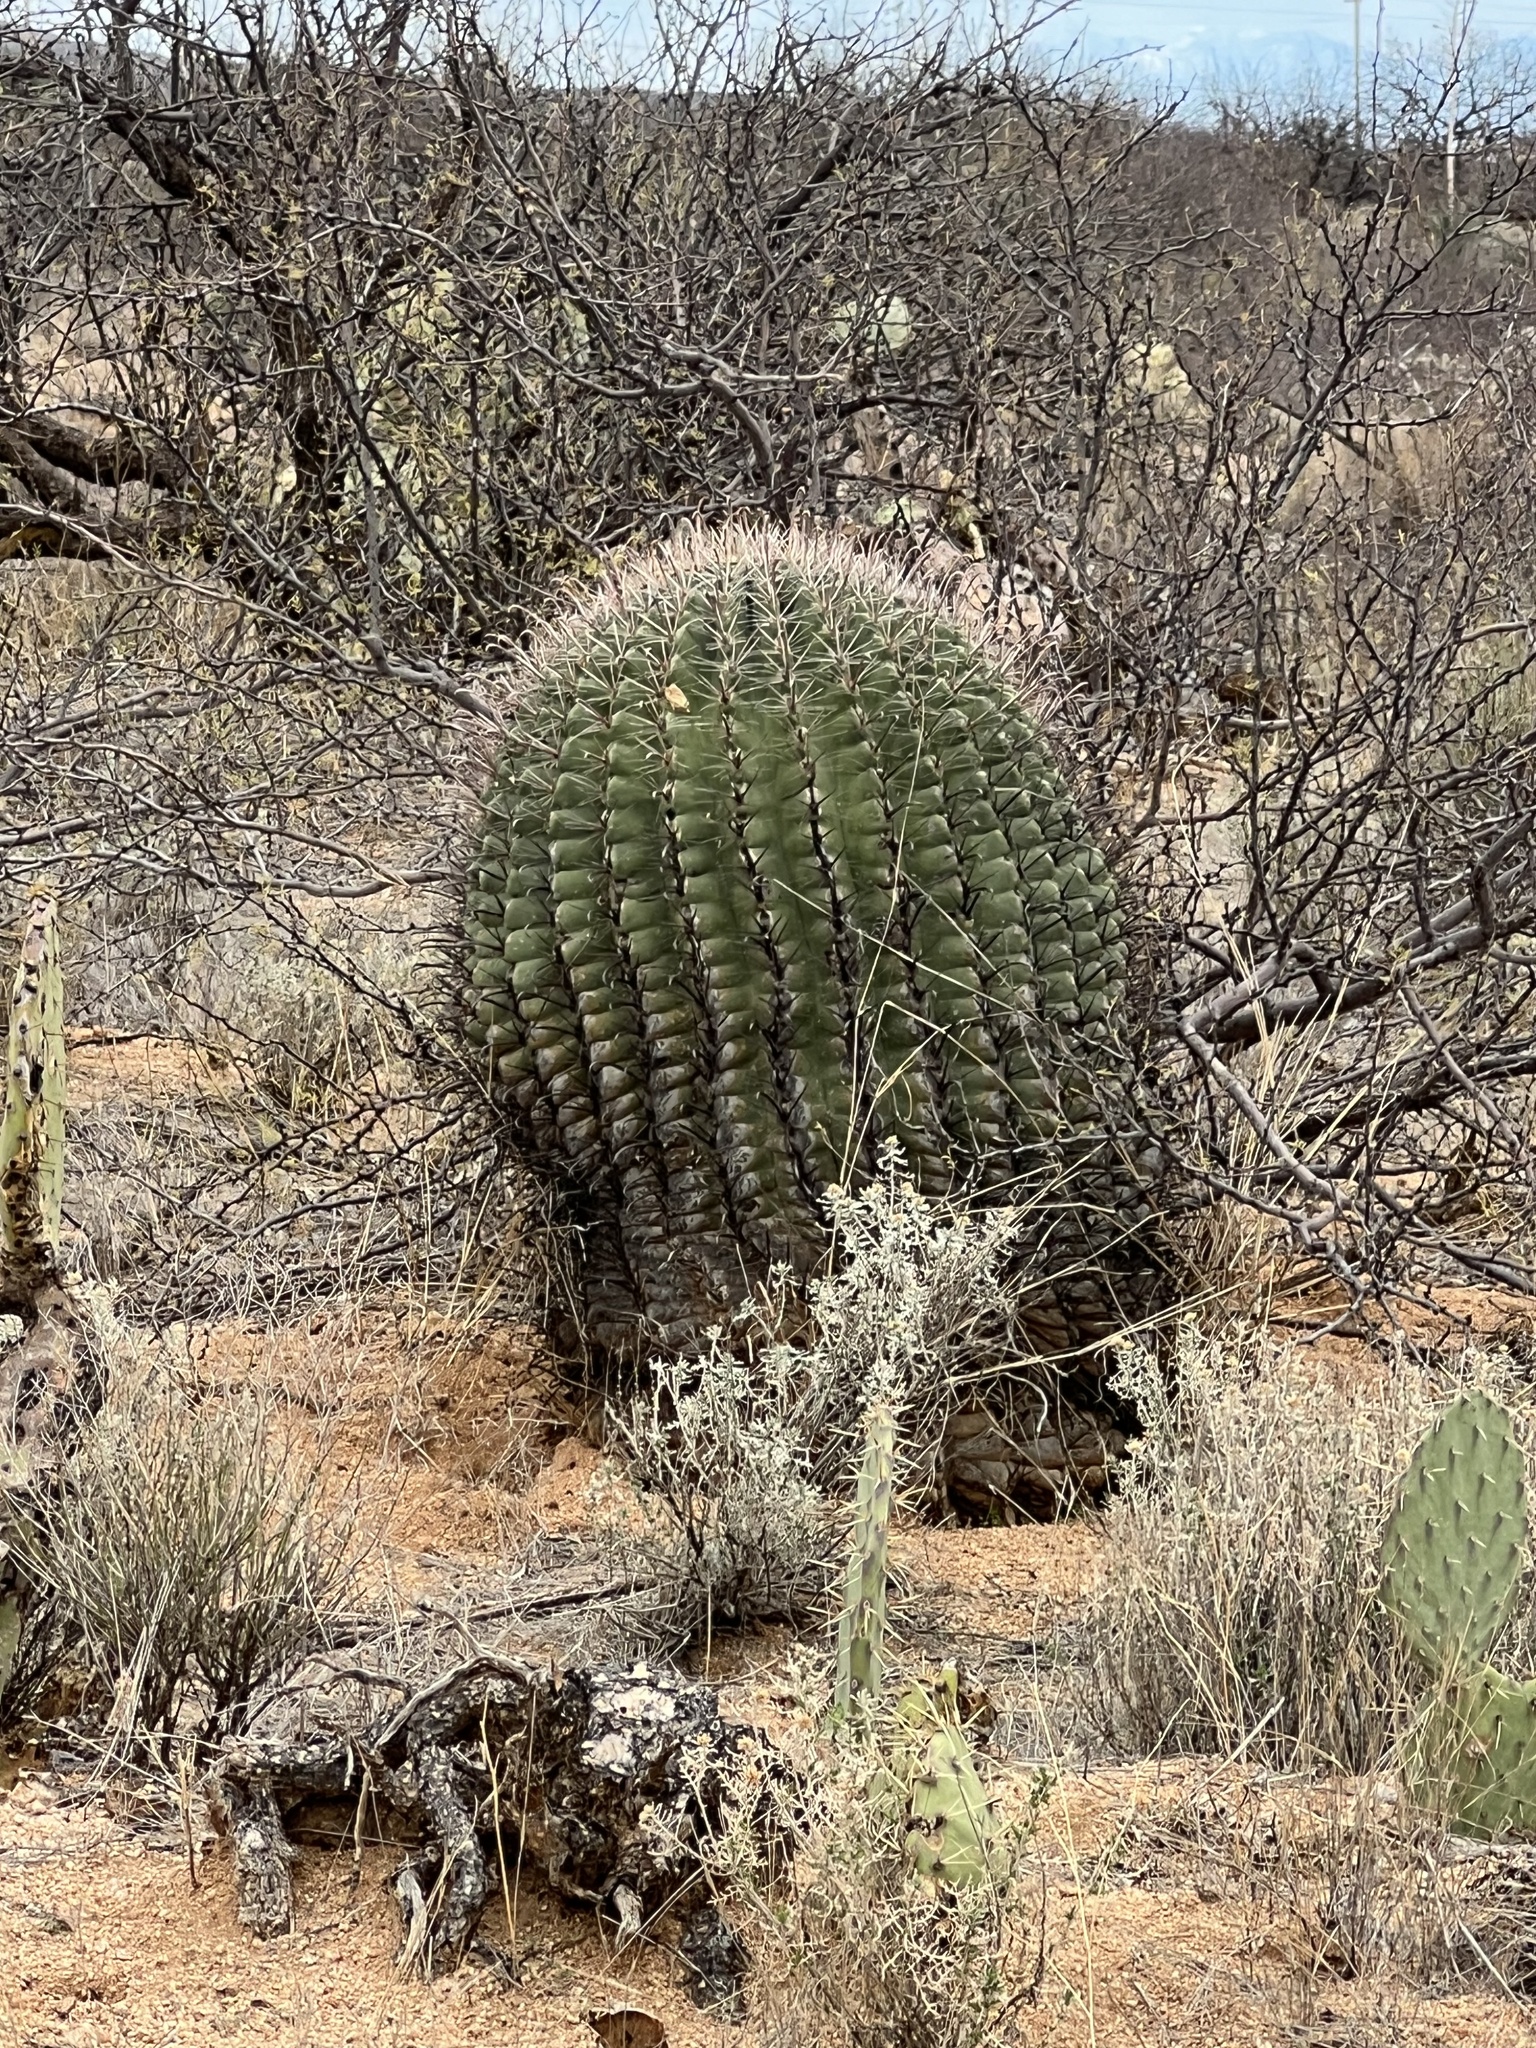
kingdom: Plantae
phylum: Tracheophyta
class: Magnoliopsida
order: Caryophyllales
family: Cactaceae
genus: Ferocactus
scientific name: Ferocactus wislizeni
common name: Candy barrel cactus
